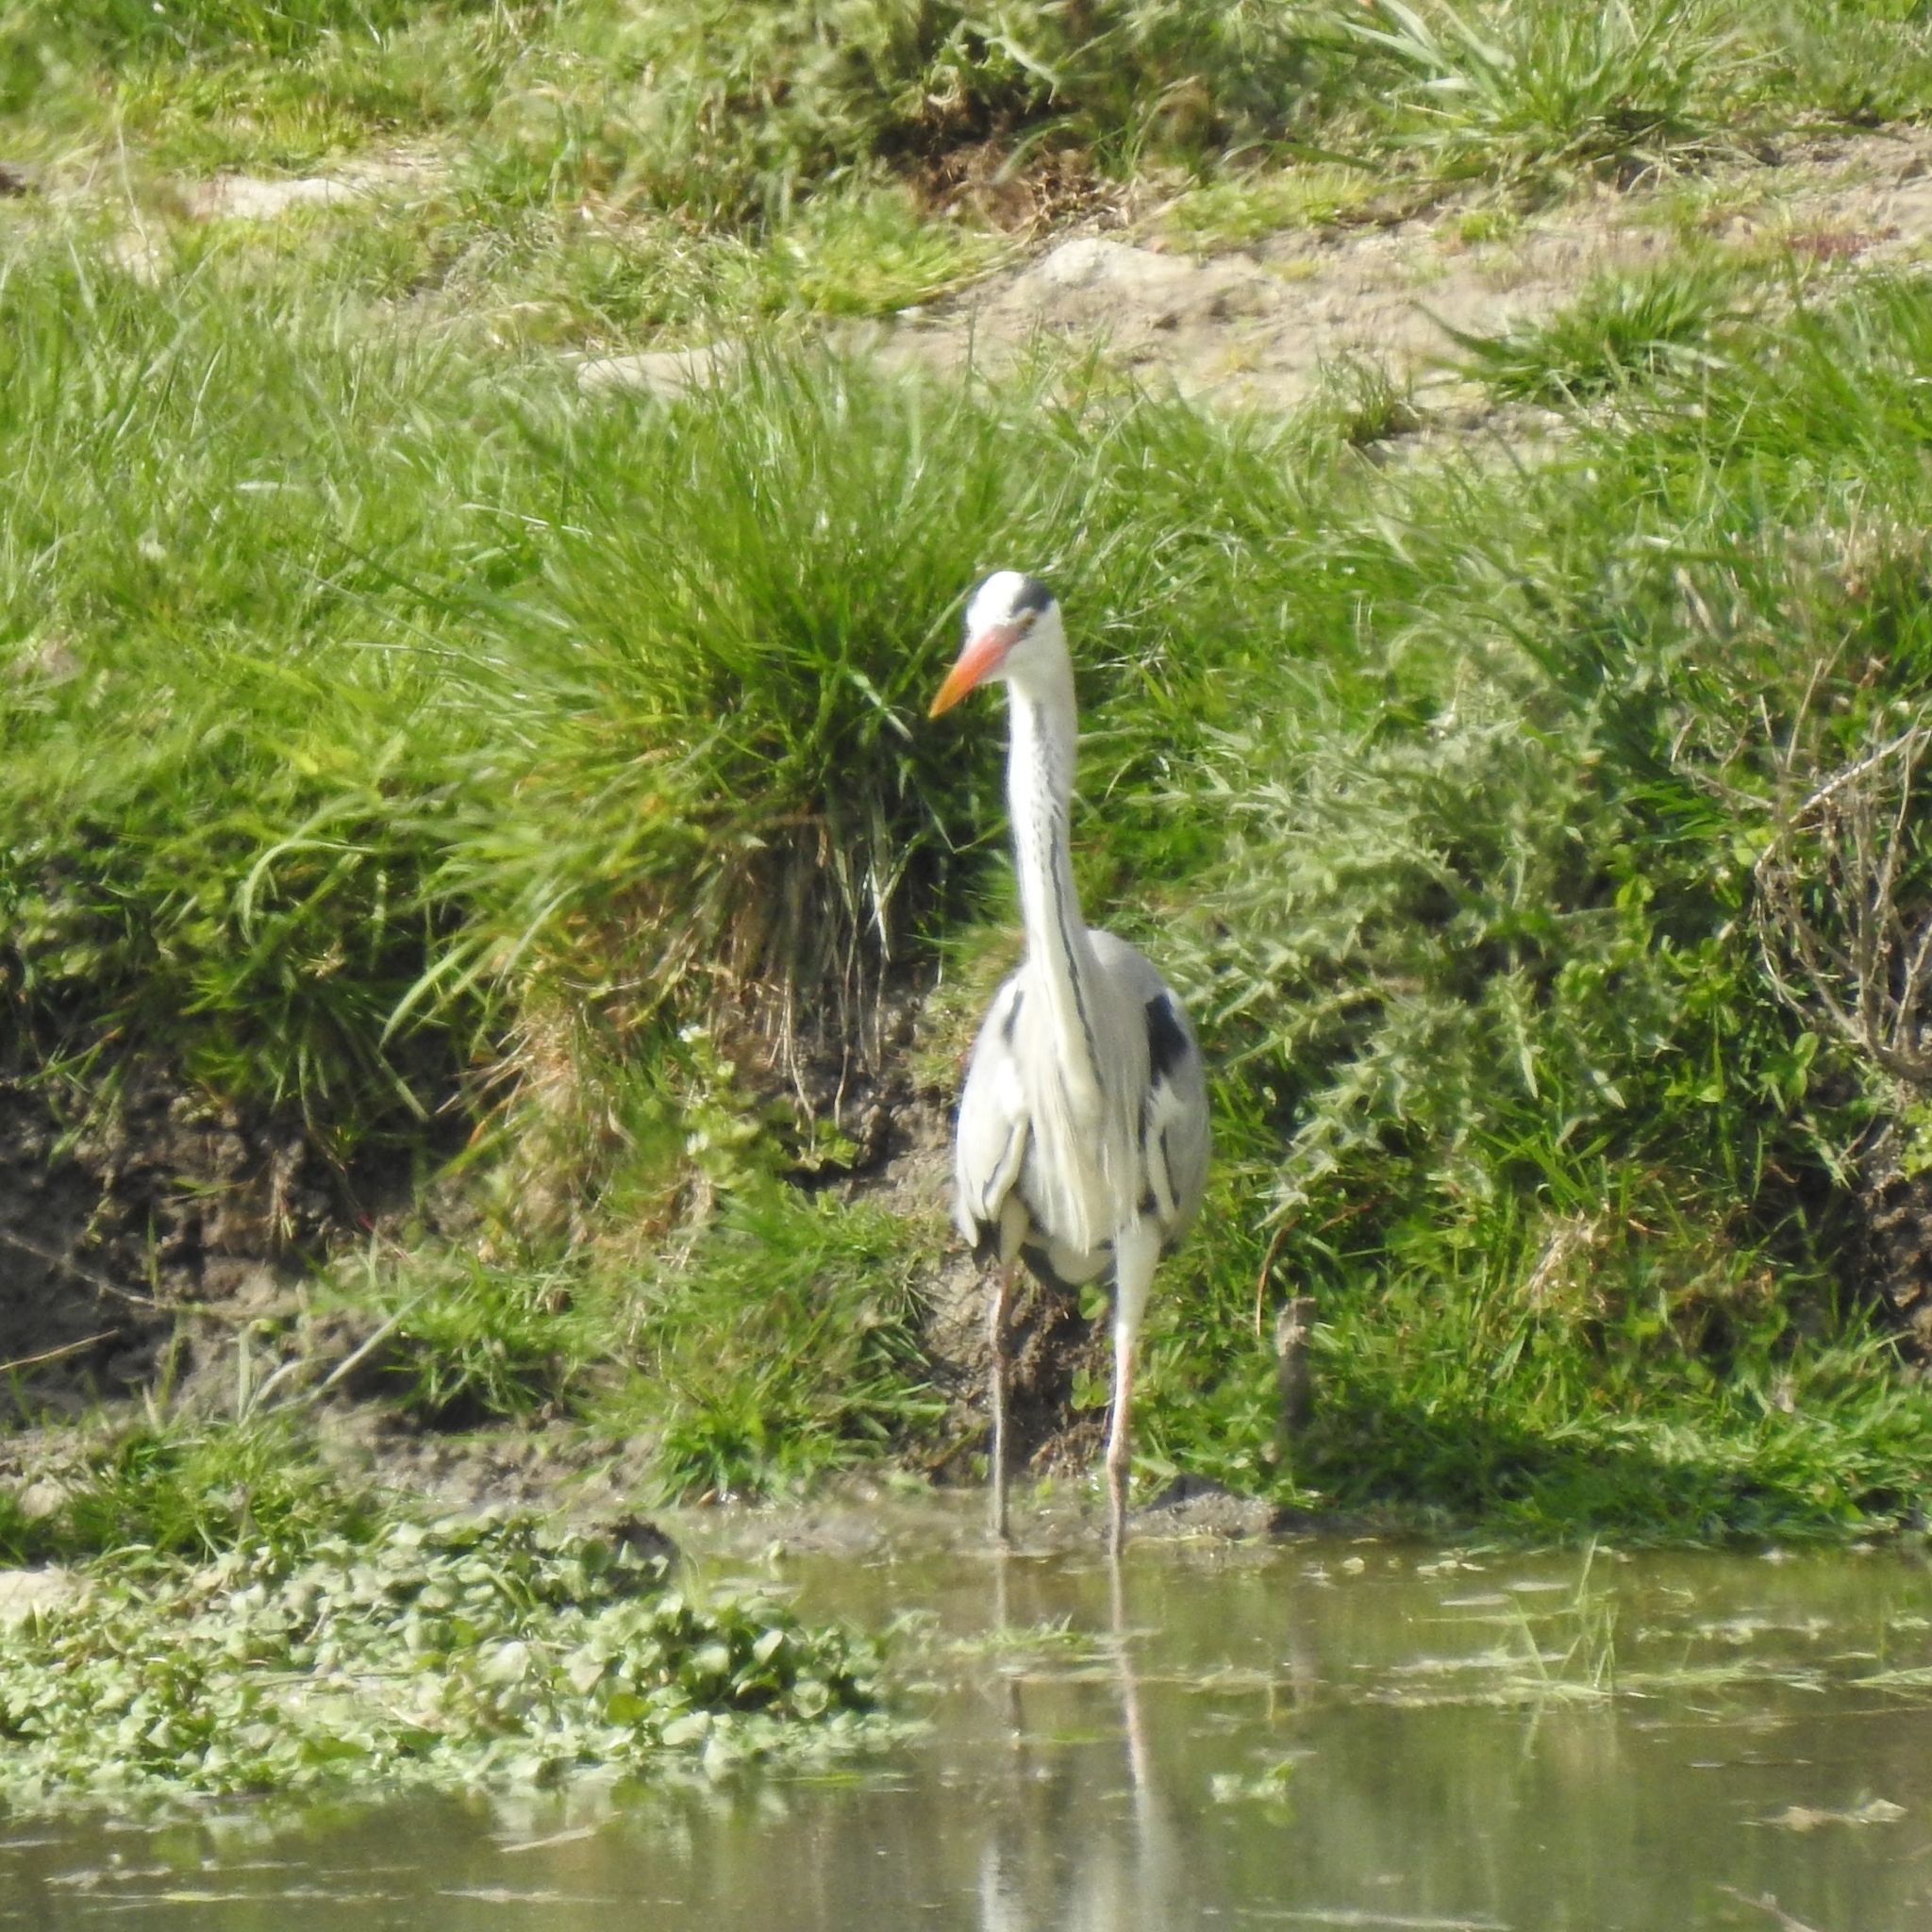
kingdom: Animalia
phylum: Chordata
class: Aves
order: Pelecaniformes
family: Ardeidae
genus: Ardea
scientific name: Ardea cinerea
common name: Grey heron
